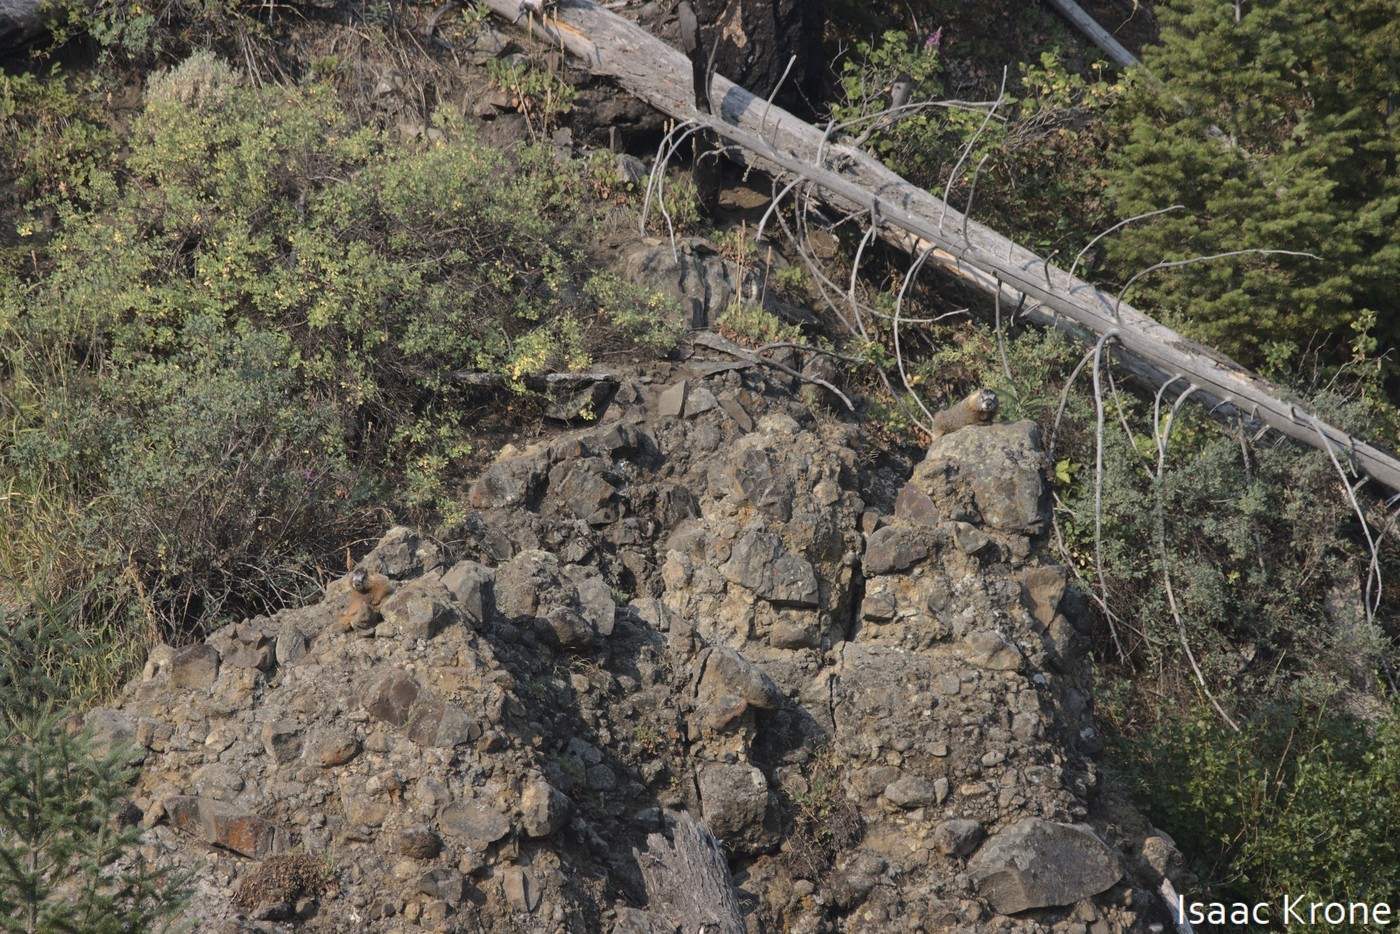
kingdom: Animalia
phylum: Chordata
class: Mammalia
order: Rodentia
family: Sciuridae
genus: Marmota
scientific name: Marmota flaviventris
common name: Yellow-bellied marmot
